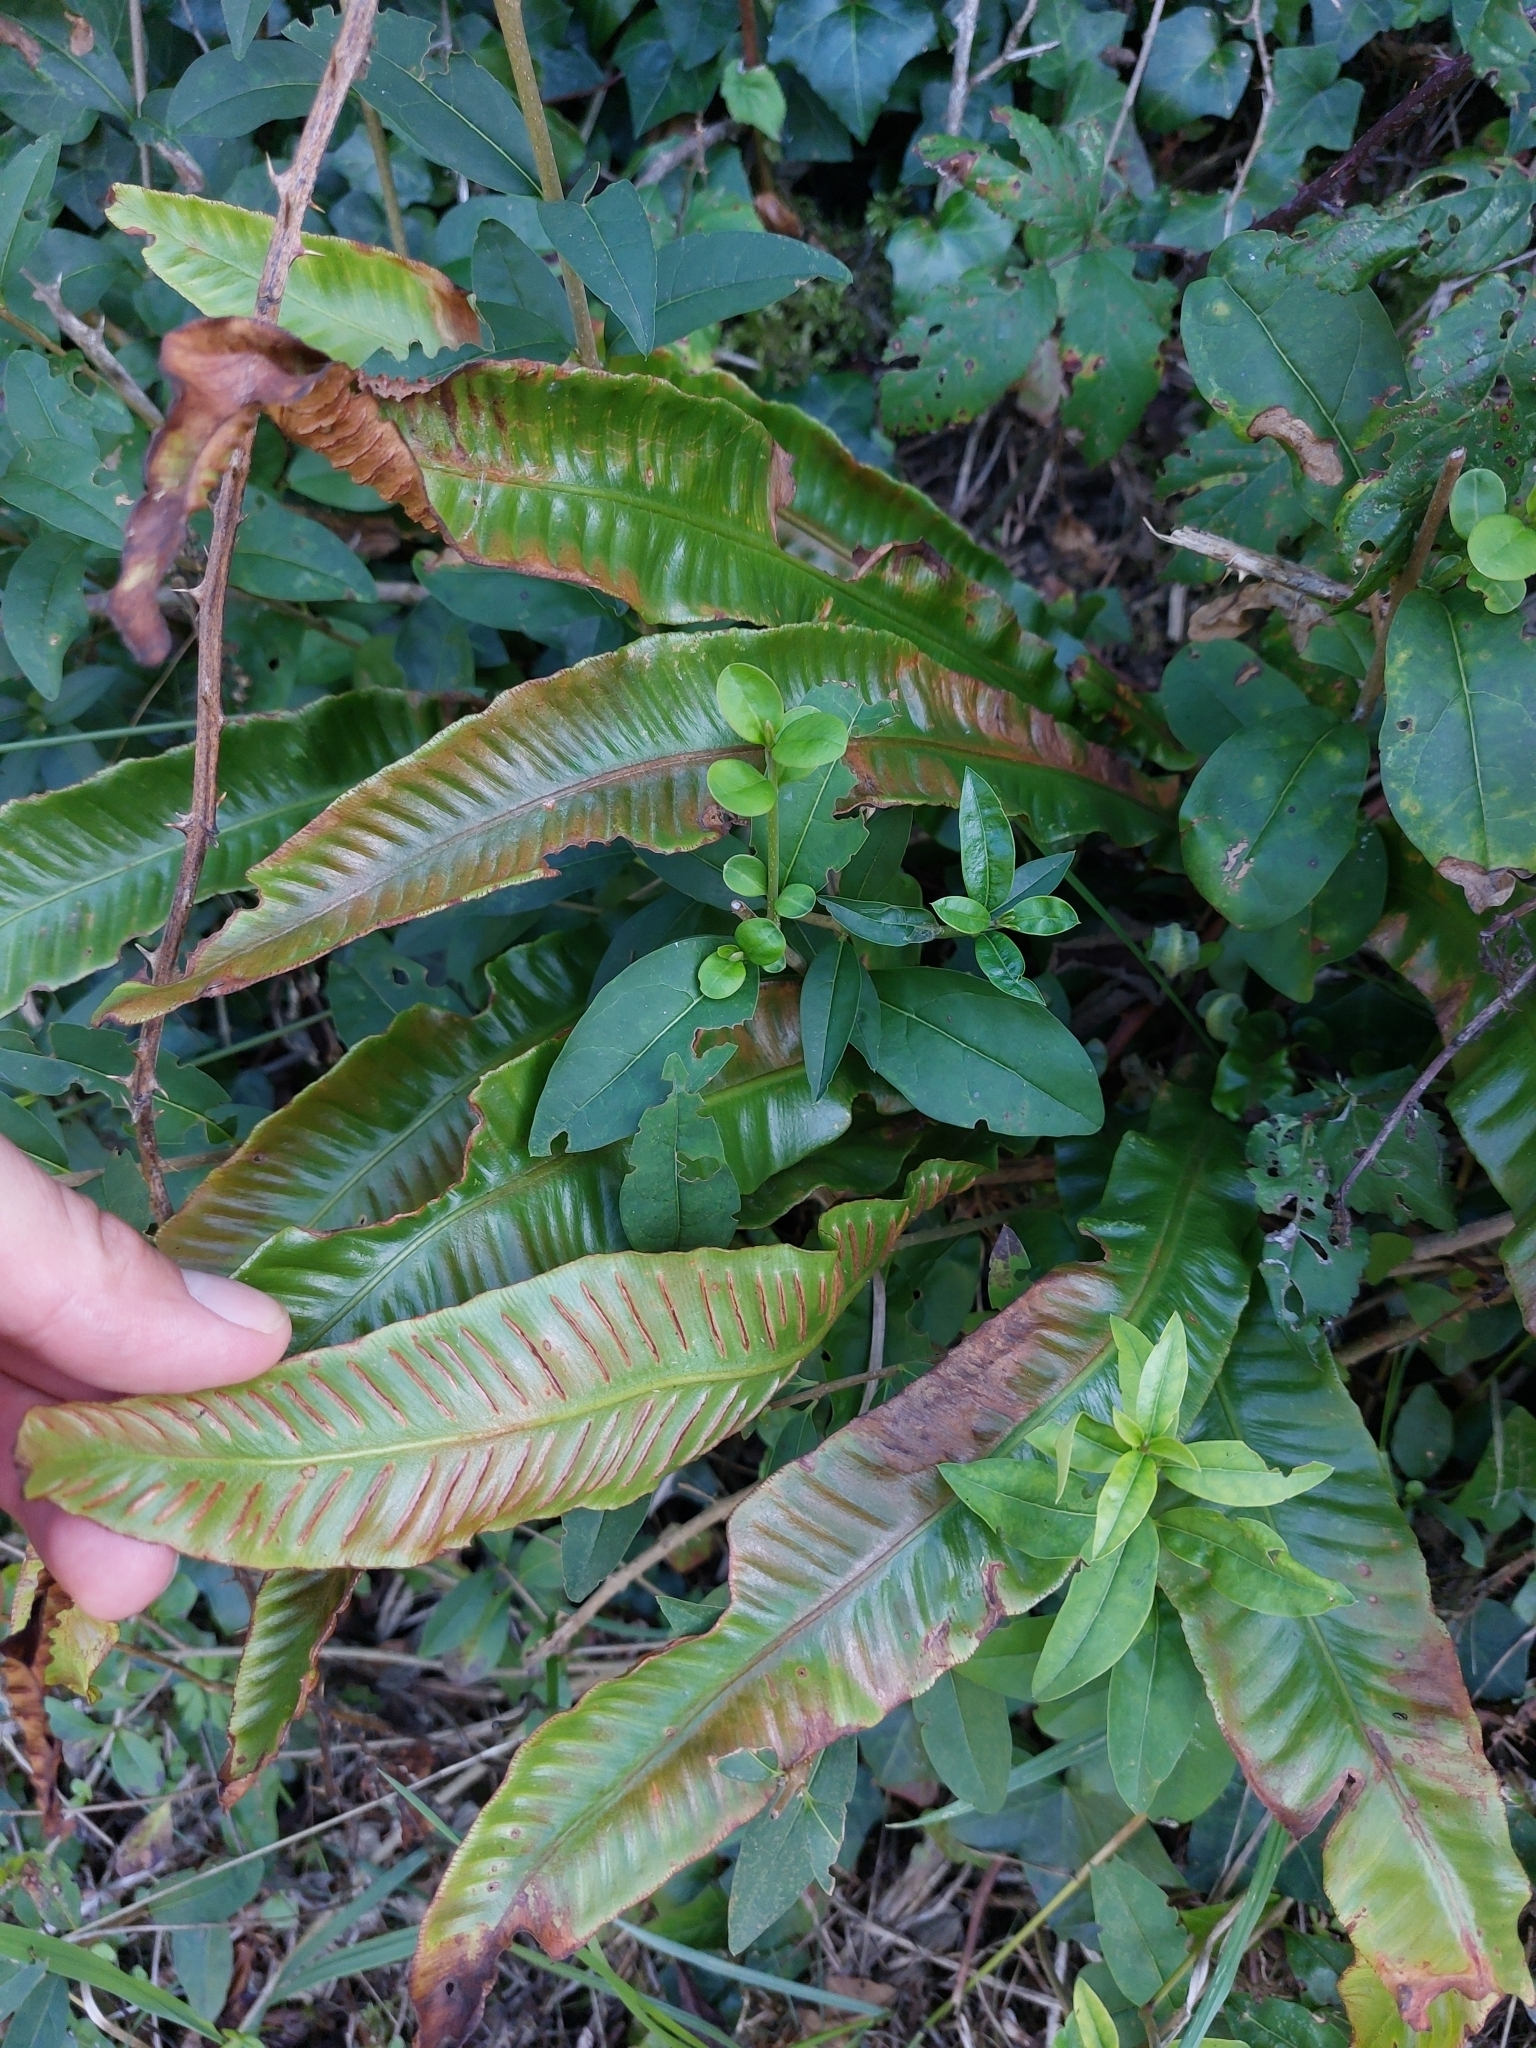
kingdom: Plantae
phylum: Tracheophyta
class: Polypodiopsida
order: Polypodiales
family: Aspleniaceae
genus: Asplenium
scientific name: Asplenium scolopendrium
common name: Hart's-tongue fern
